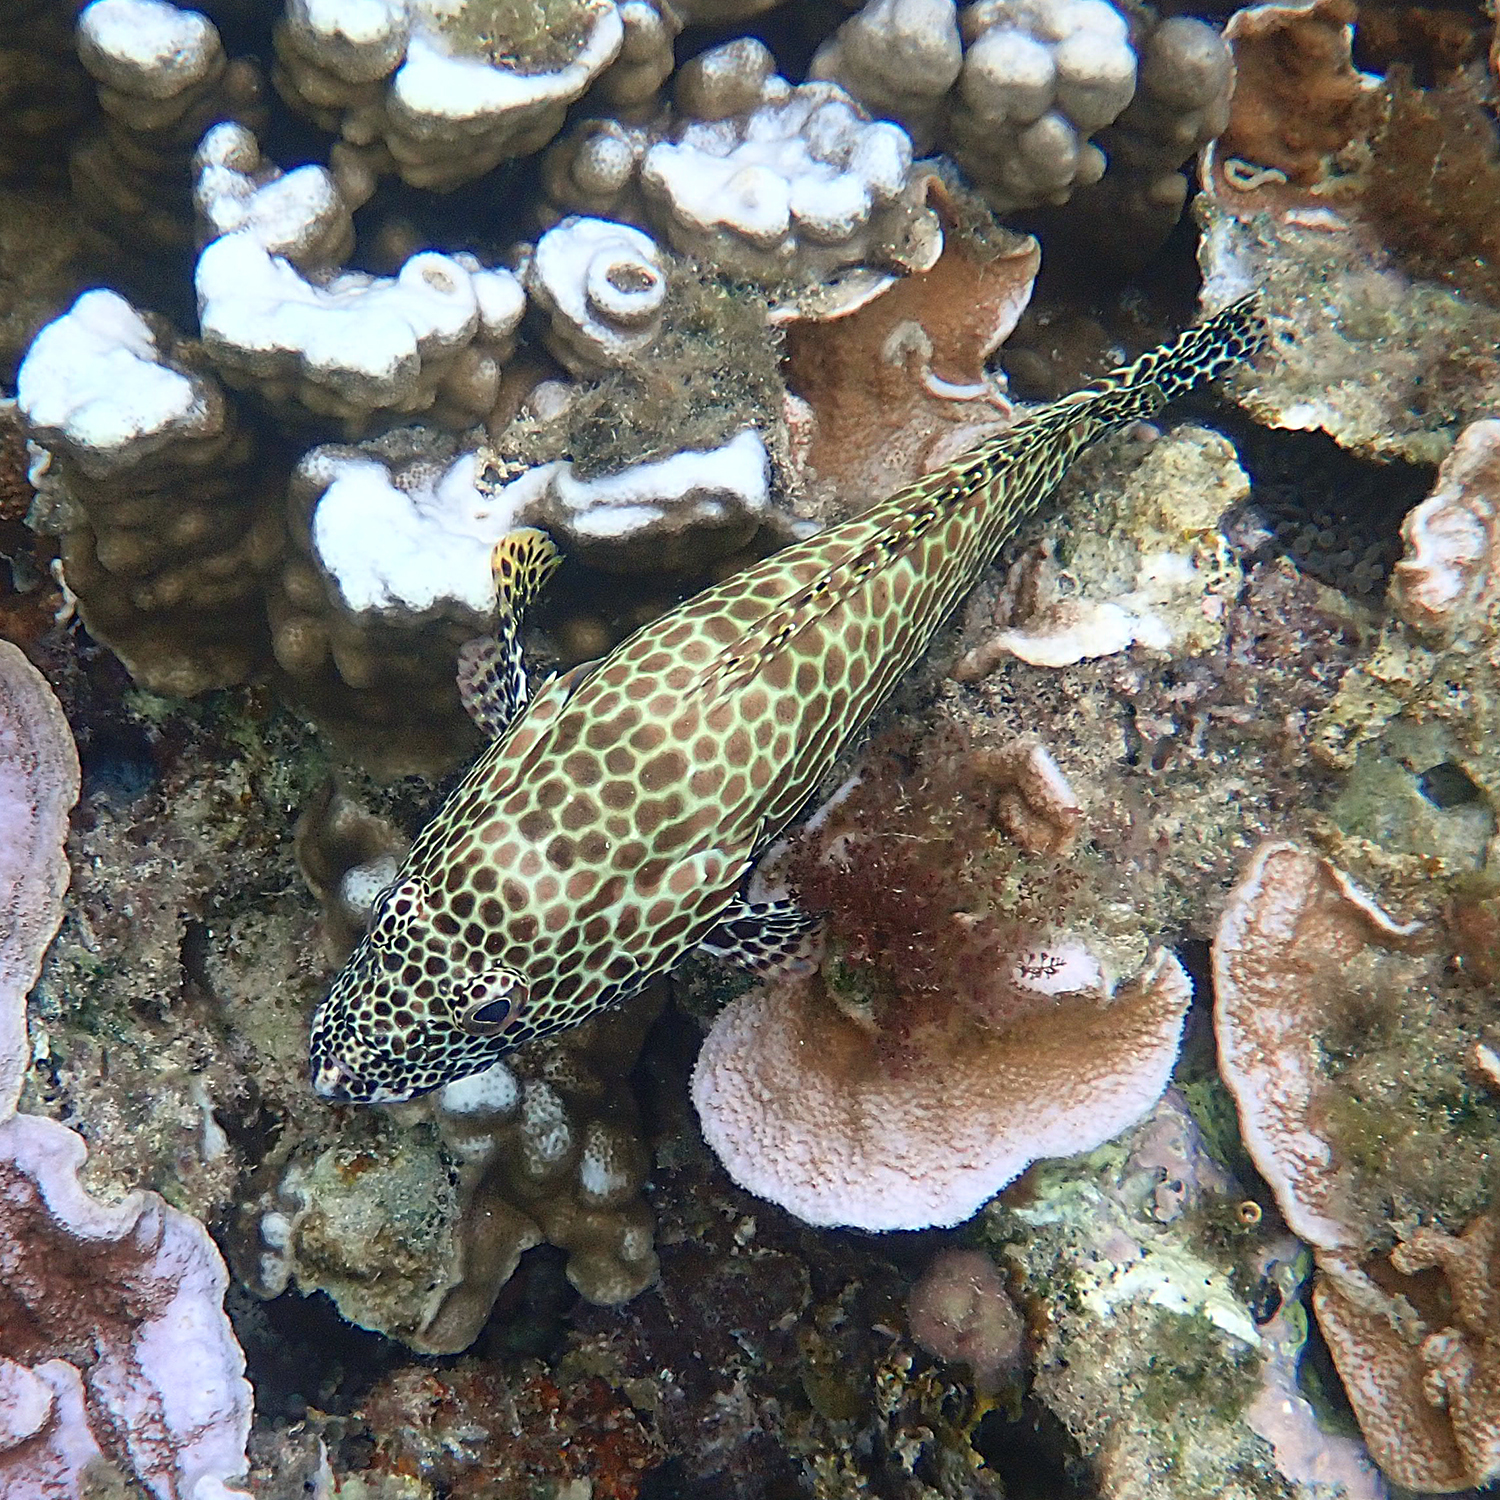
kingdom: Animalia
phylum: Chordata
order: Perciformes
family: Serranidae
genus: Epinephelus
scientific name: Epinephelus merra
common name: Honeycomb grouper
